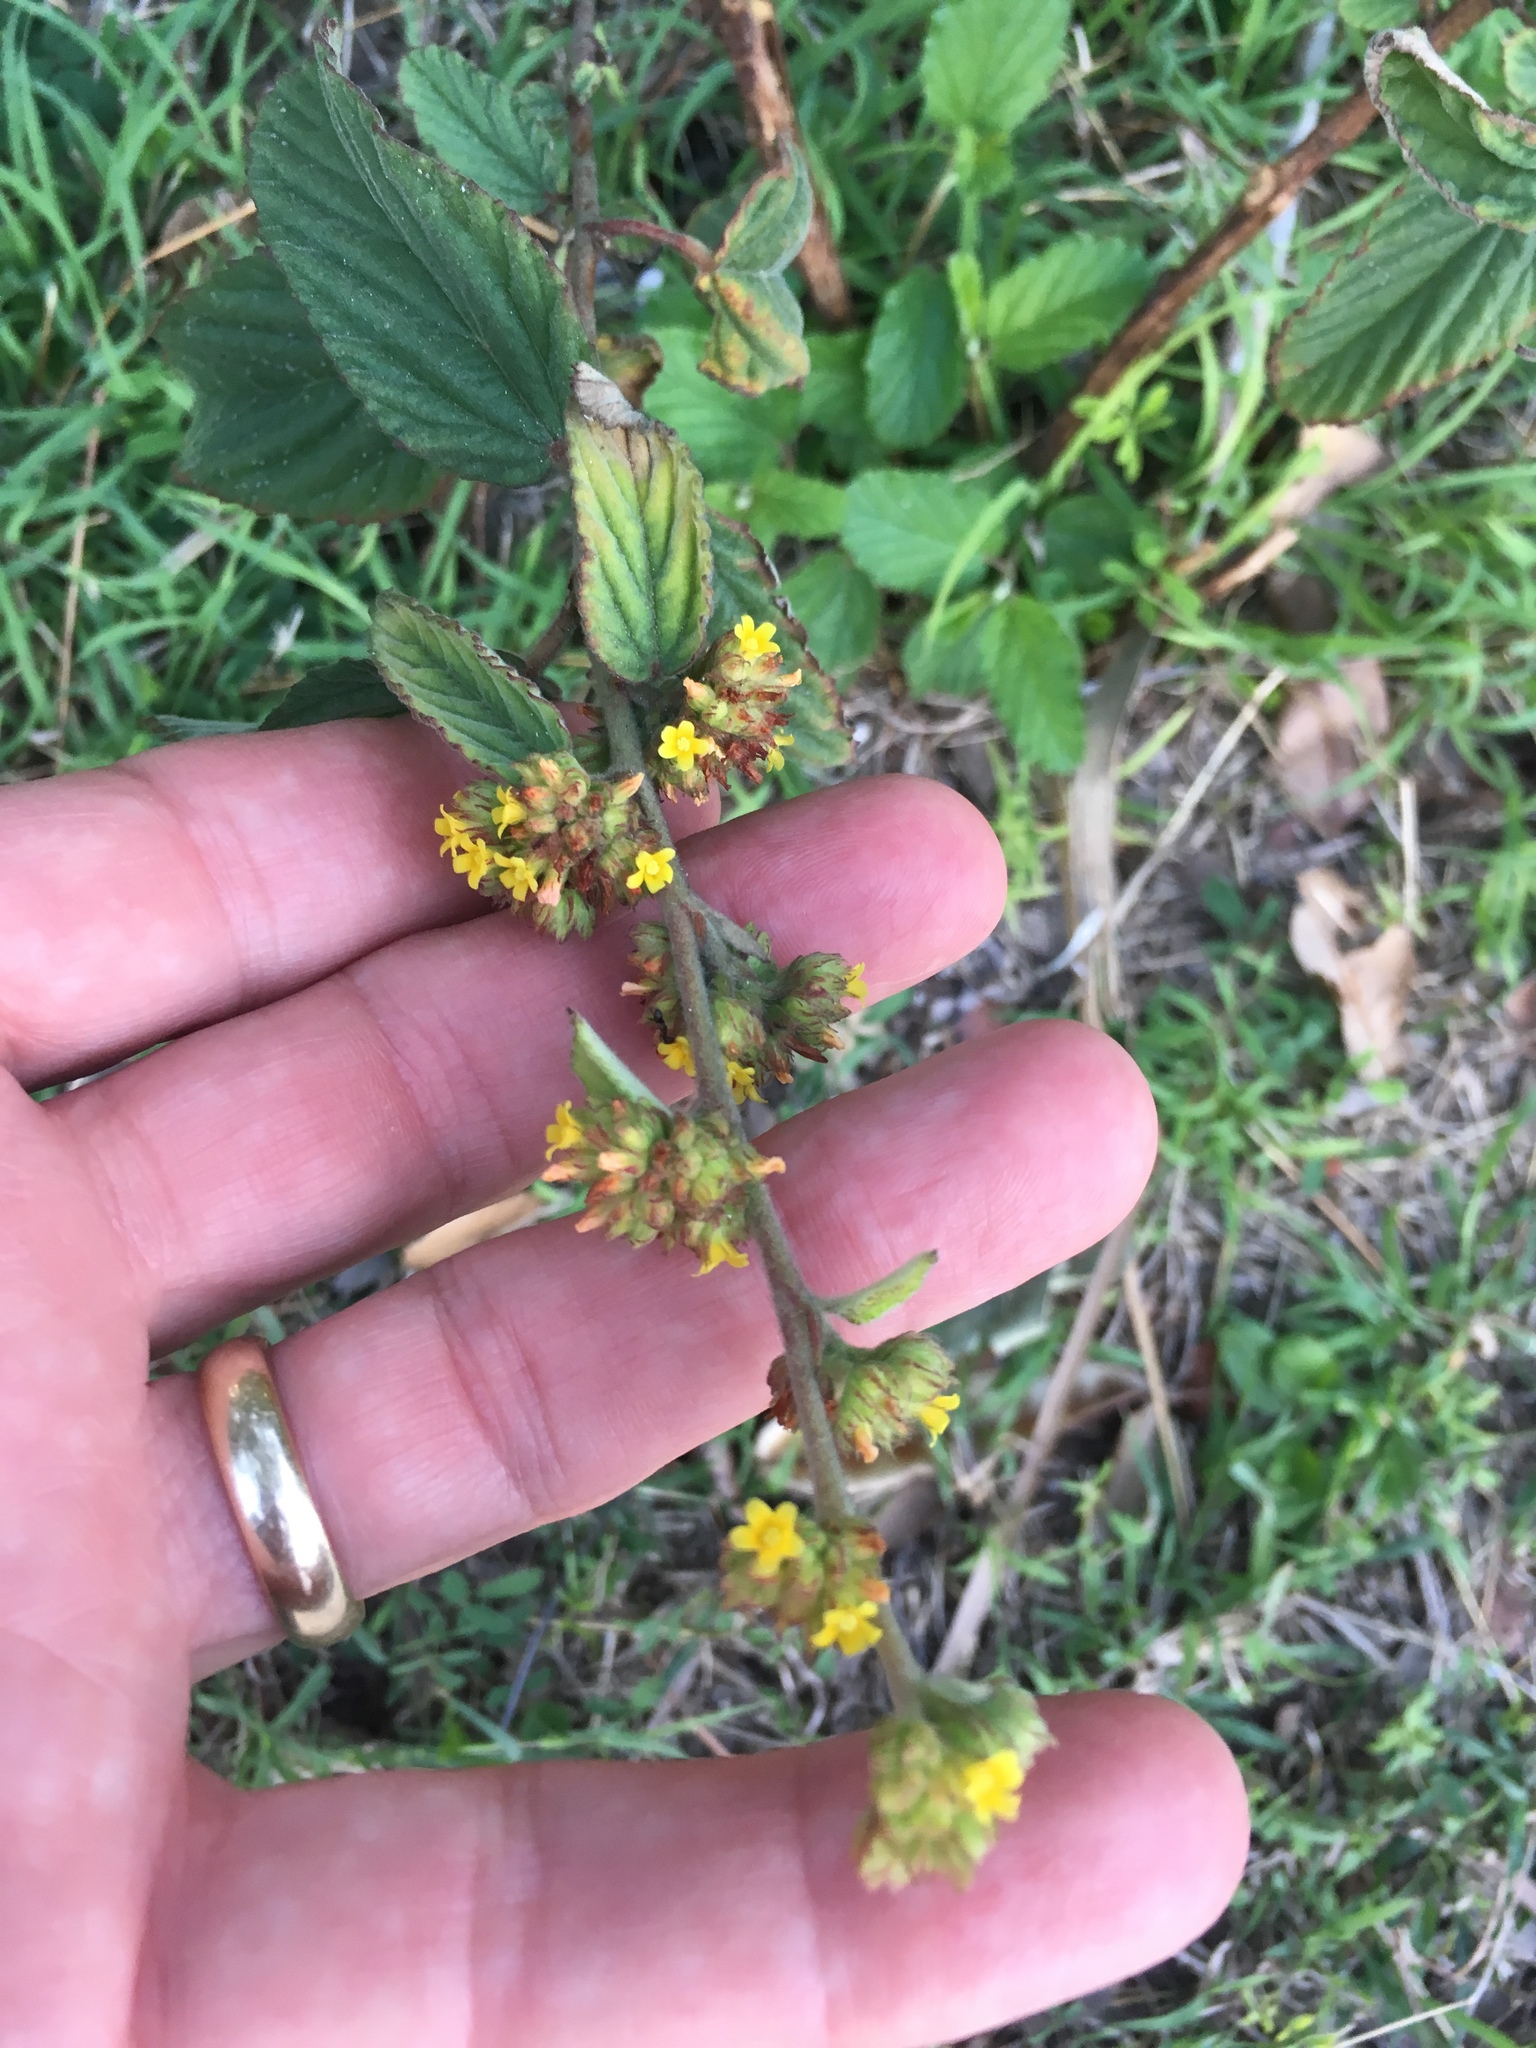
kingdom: Plantae
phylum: Tracheophyta
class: Magnoliopsida
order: Malvales
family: Malvaceae
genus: Waltheria
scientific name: Waltheria indica
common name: Leather-coat
